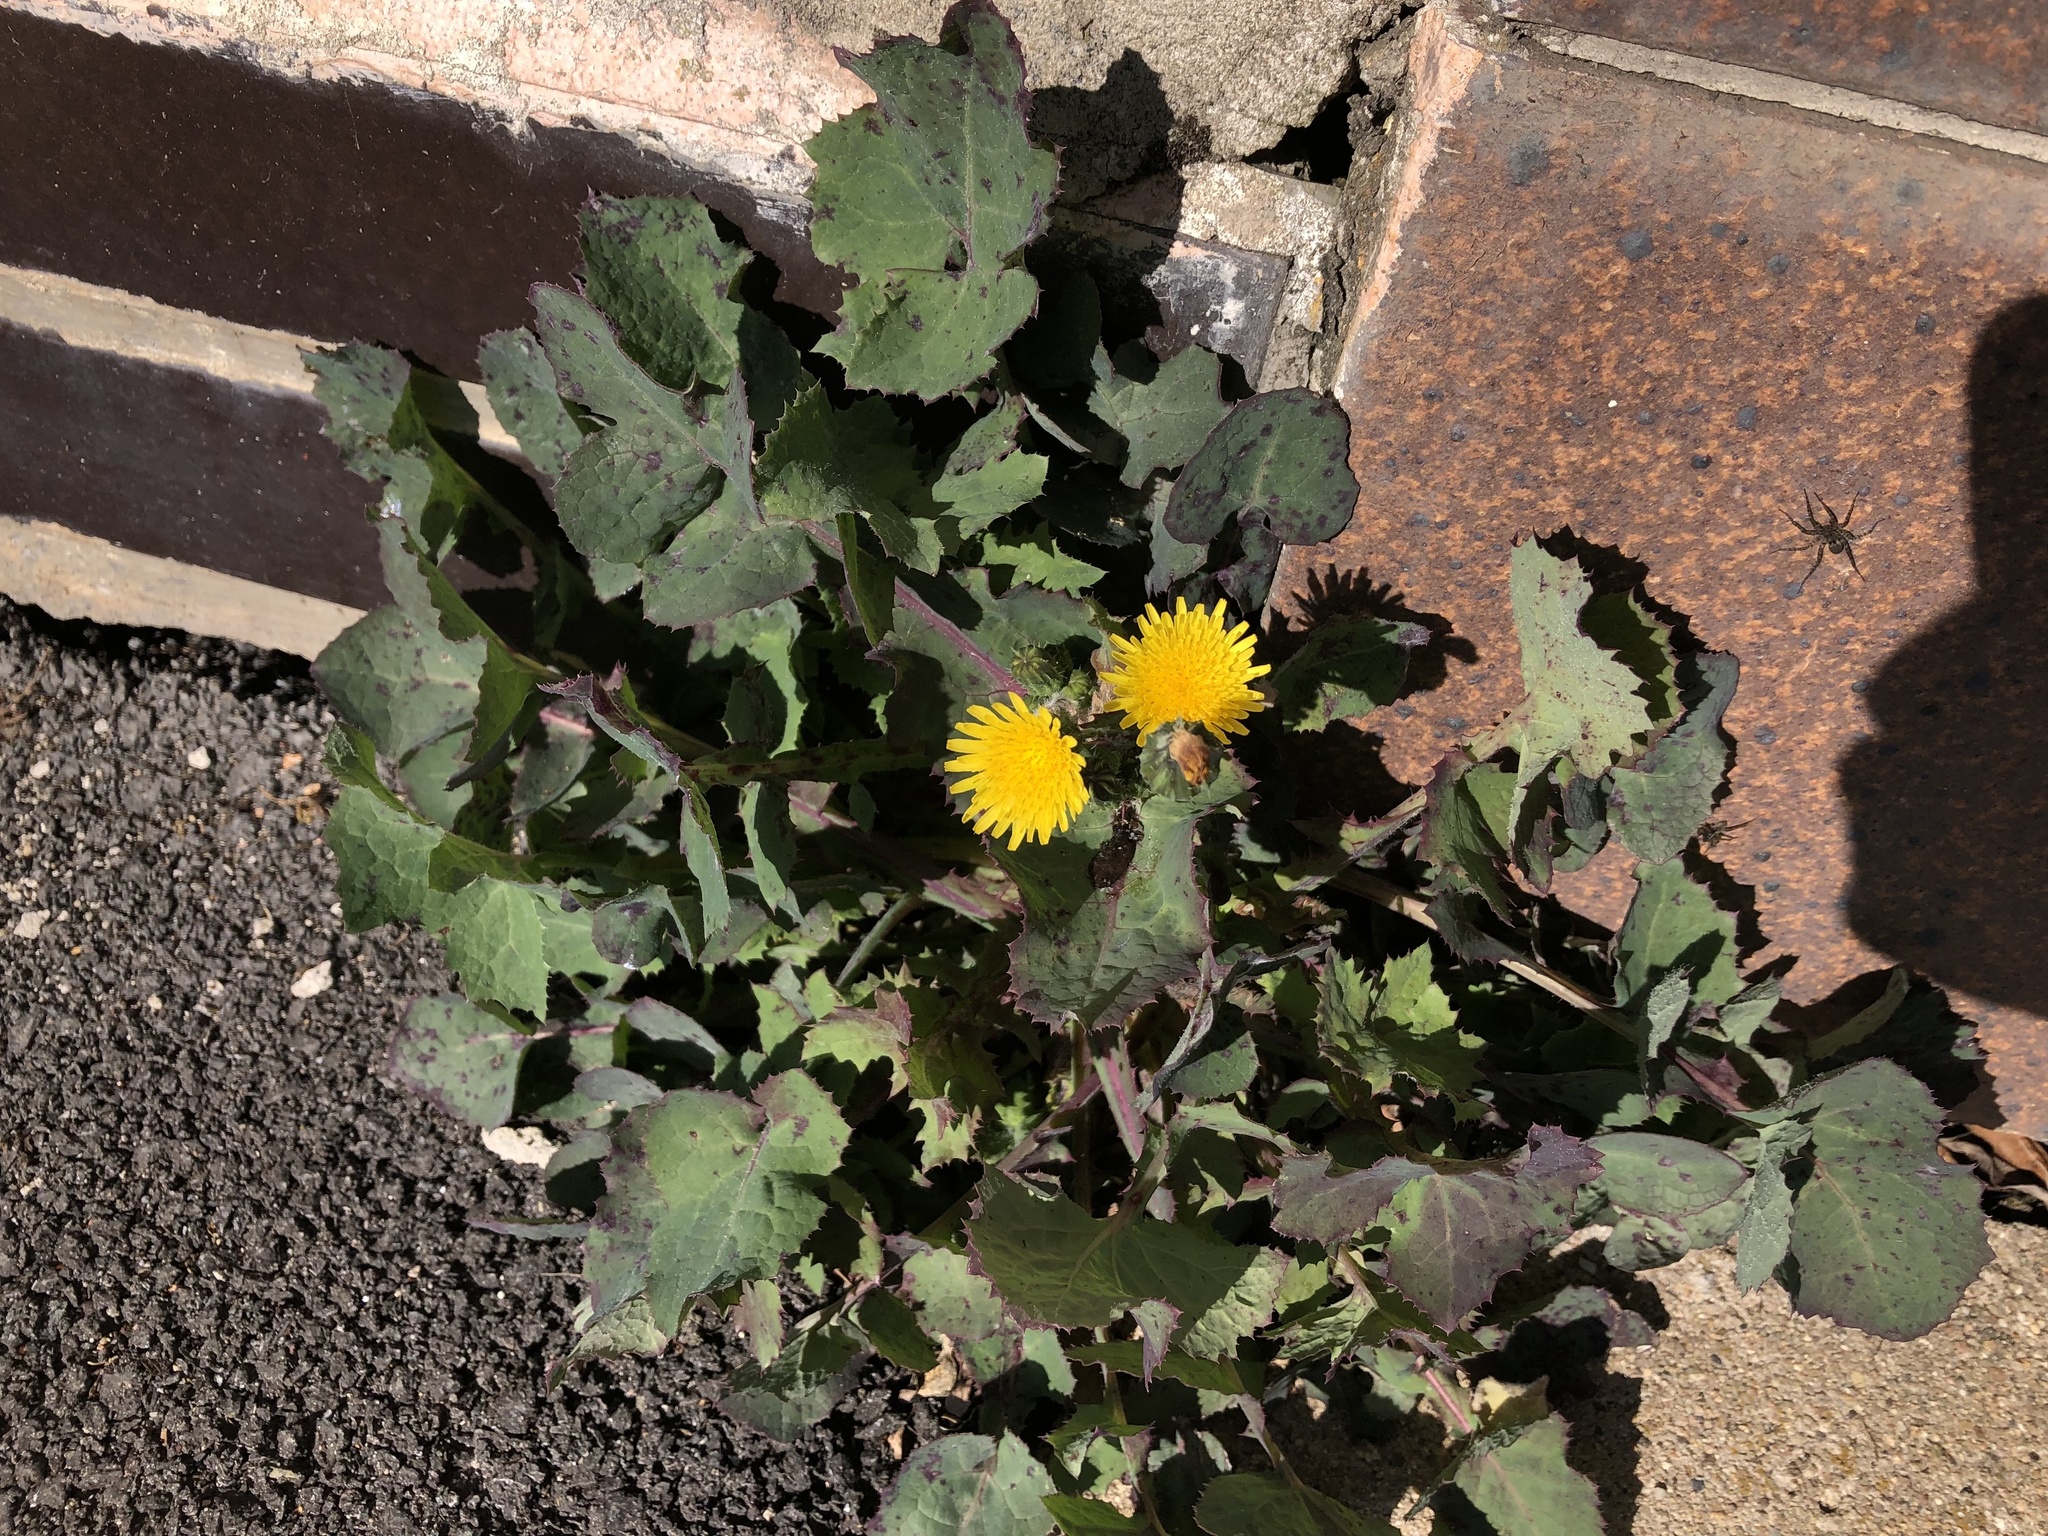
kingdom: Plantae
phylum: Tracheophyta
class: Magnoliopsida
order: Asterales
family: Asteraceae
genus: Sonchus
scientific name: Sonchus oleraceus
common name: Common sowthistle
